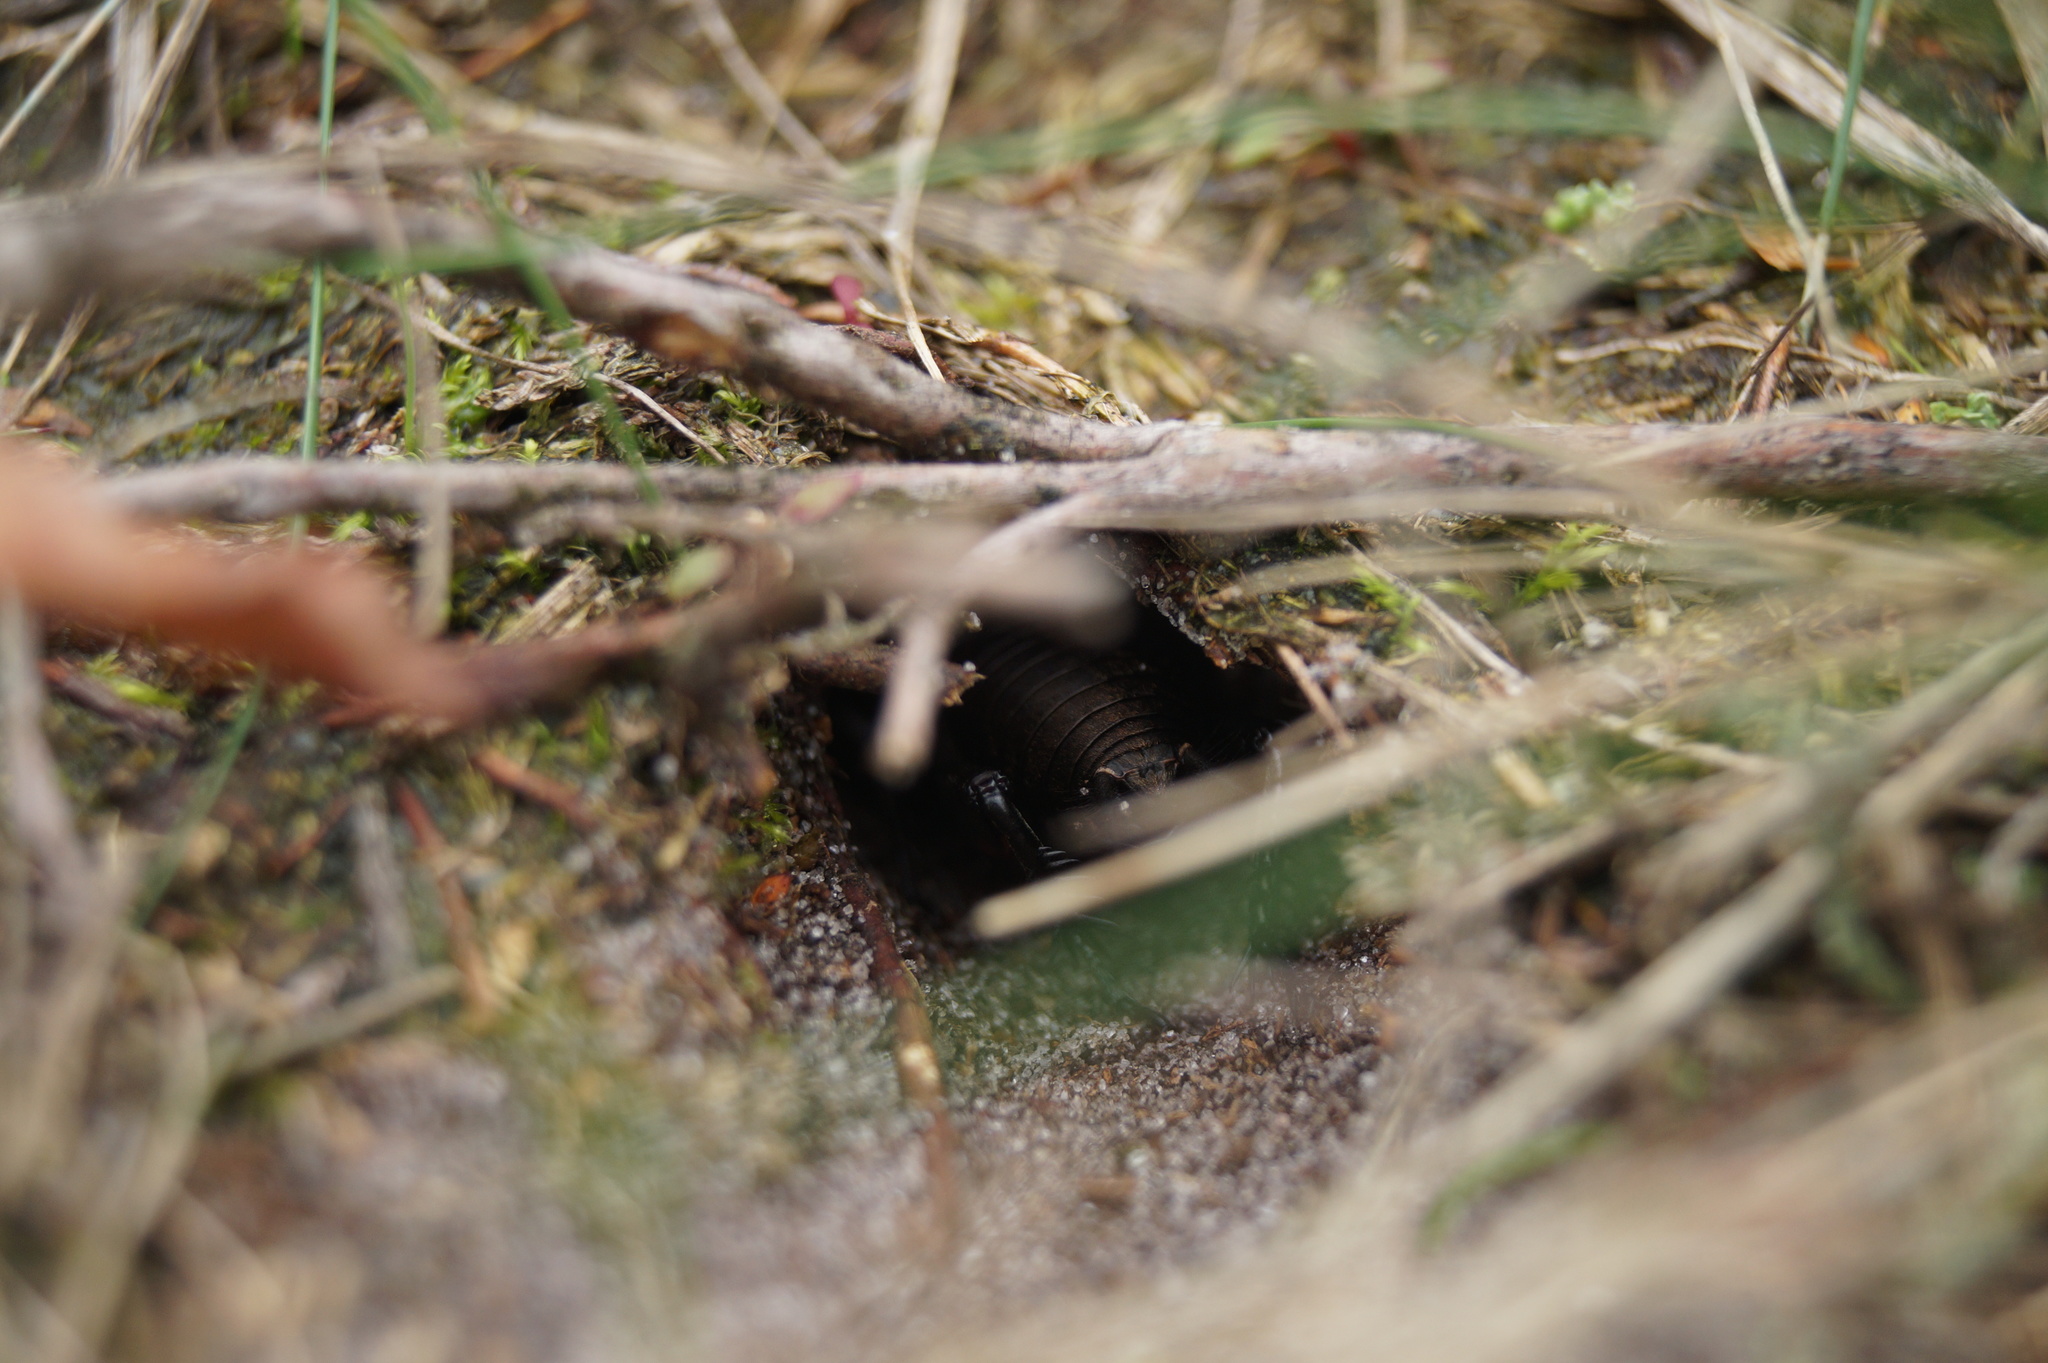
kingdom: Animalia
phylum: Arthropoda
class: Insecta
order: Orthoptera
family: Gryllidae
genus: Gryllus
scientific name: Gryllus campestris
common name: Field cricket
